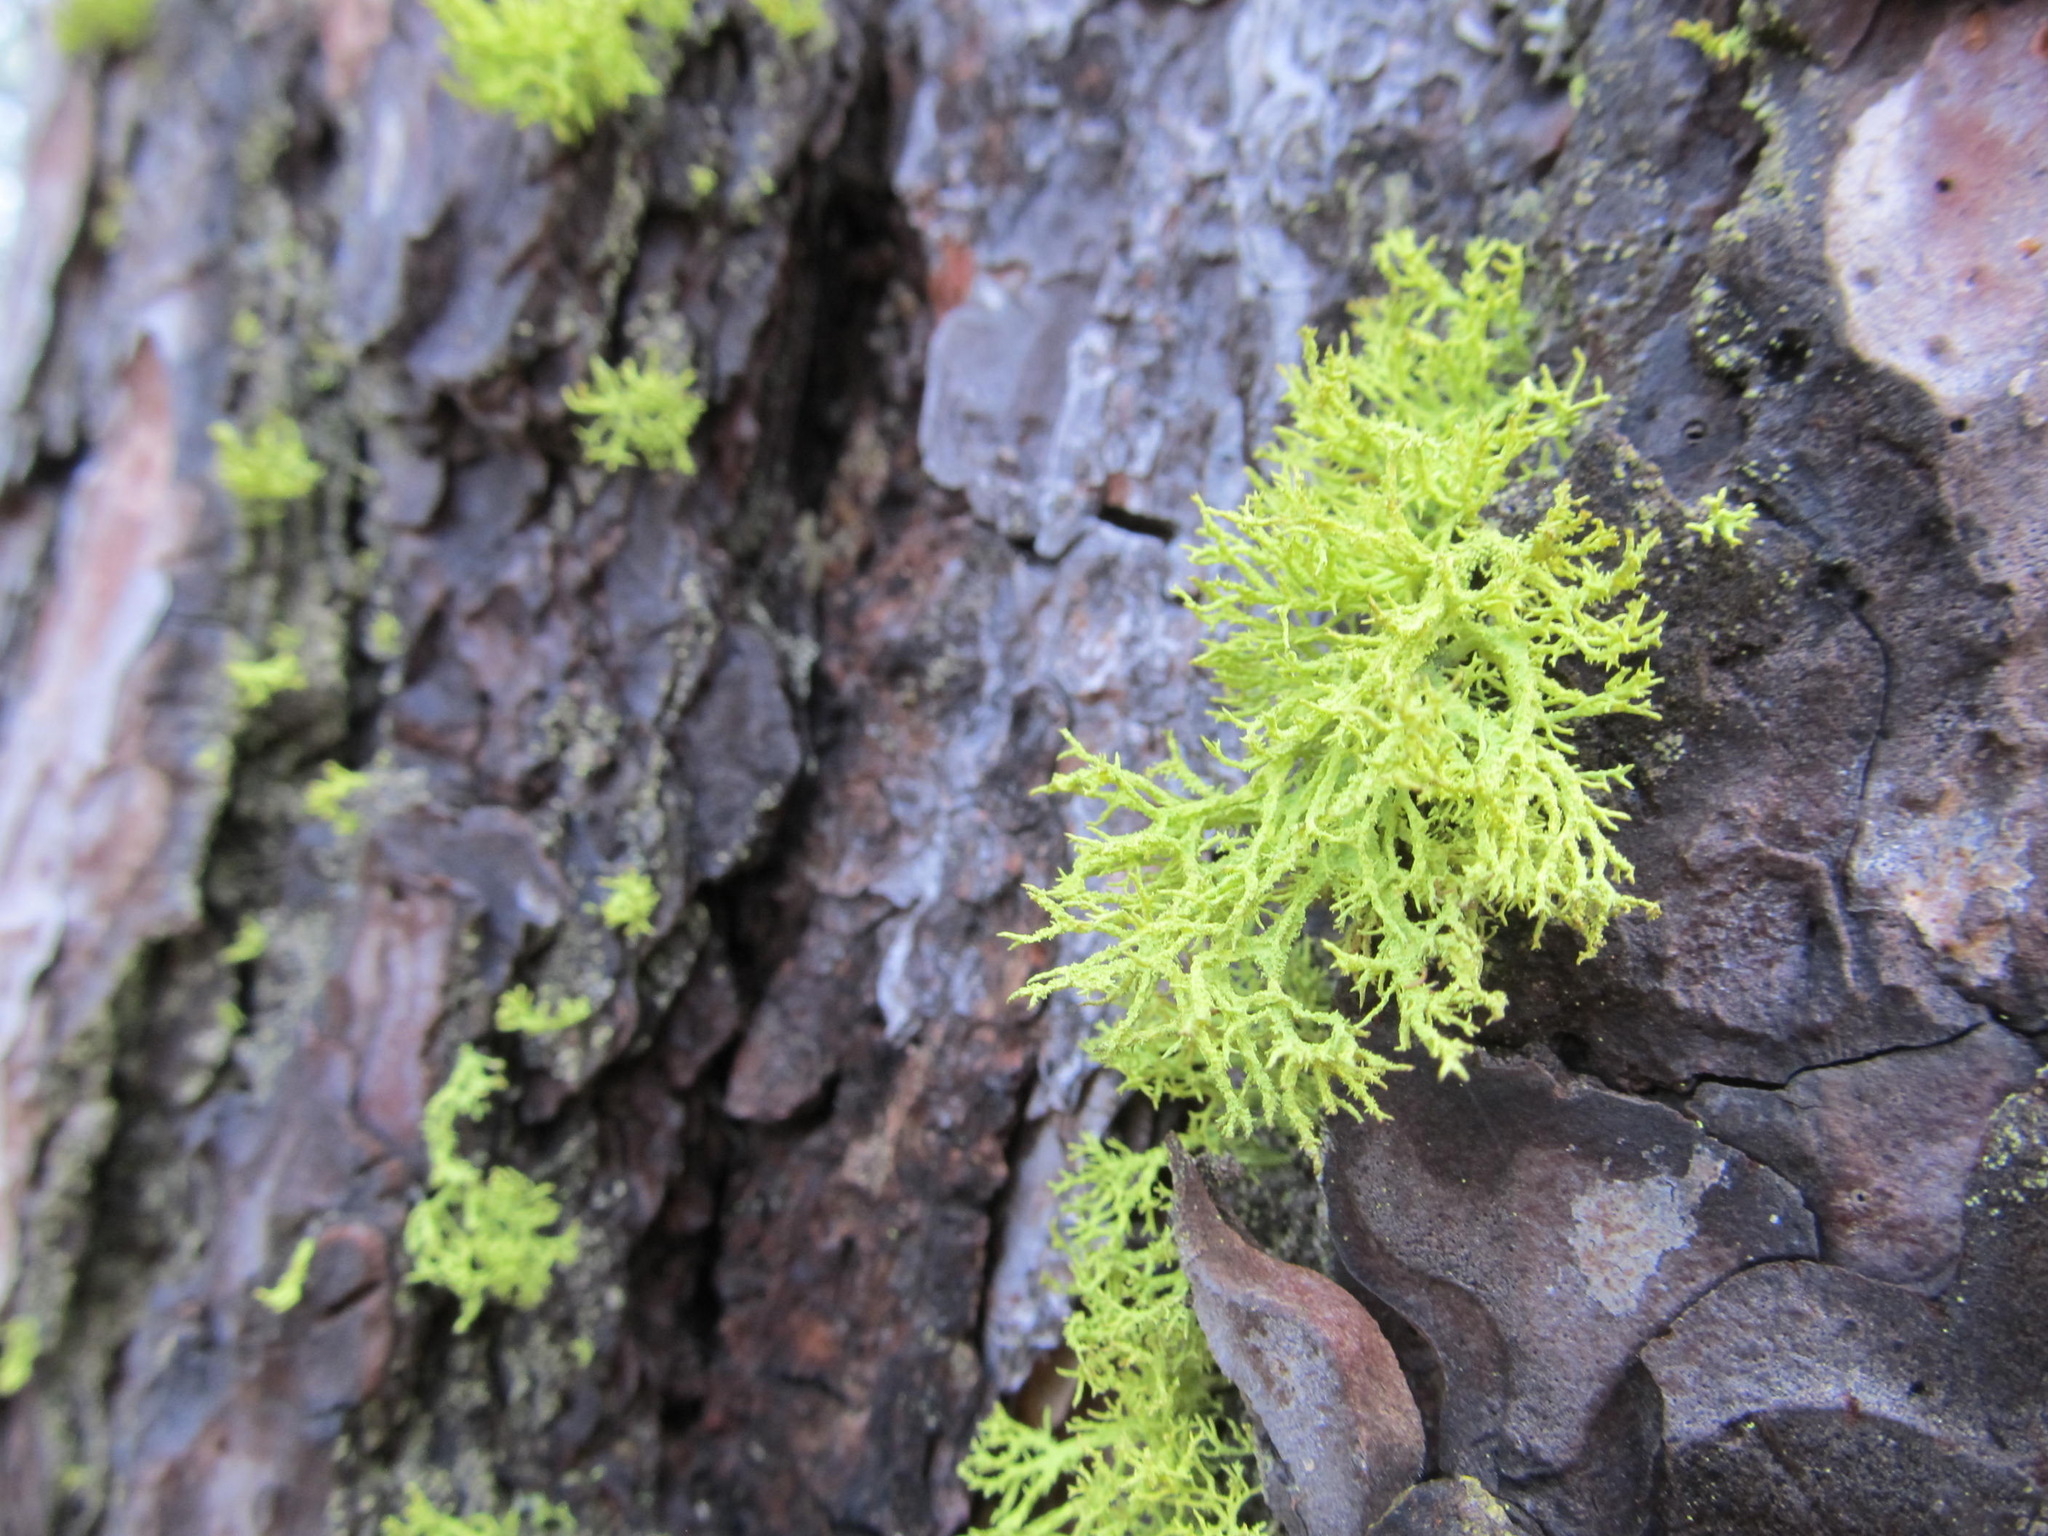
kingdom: Fungi
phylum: Ascomycota
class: Lecanoromycetes
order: Lecanorales
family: Parmeliaceae
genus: Letharia
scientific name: Letharia vulpina
